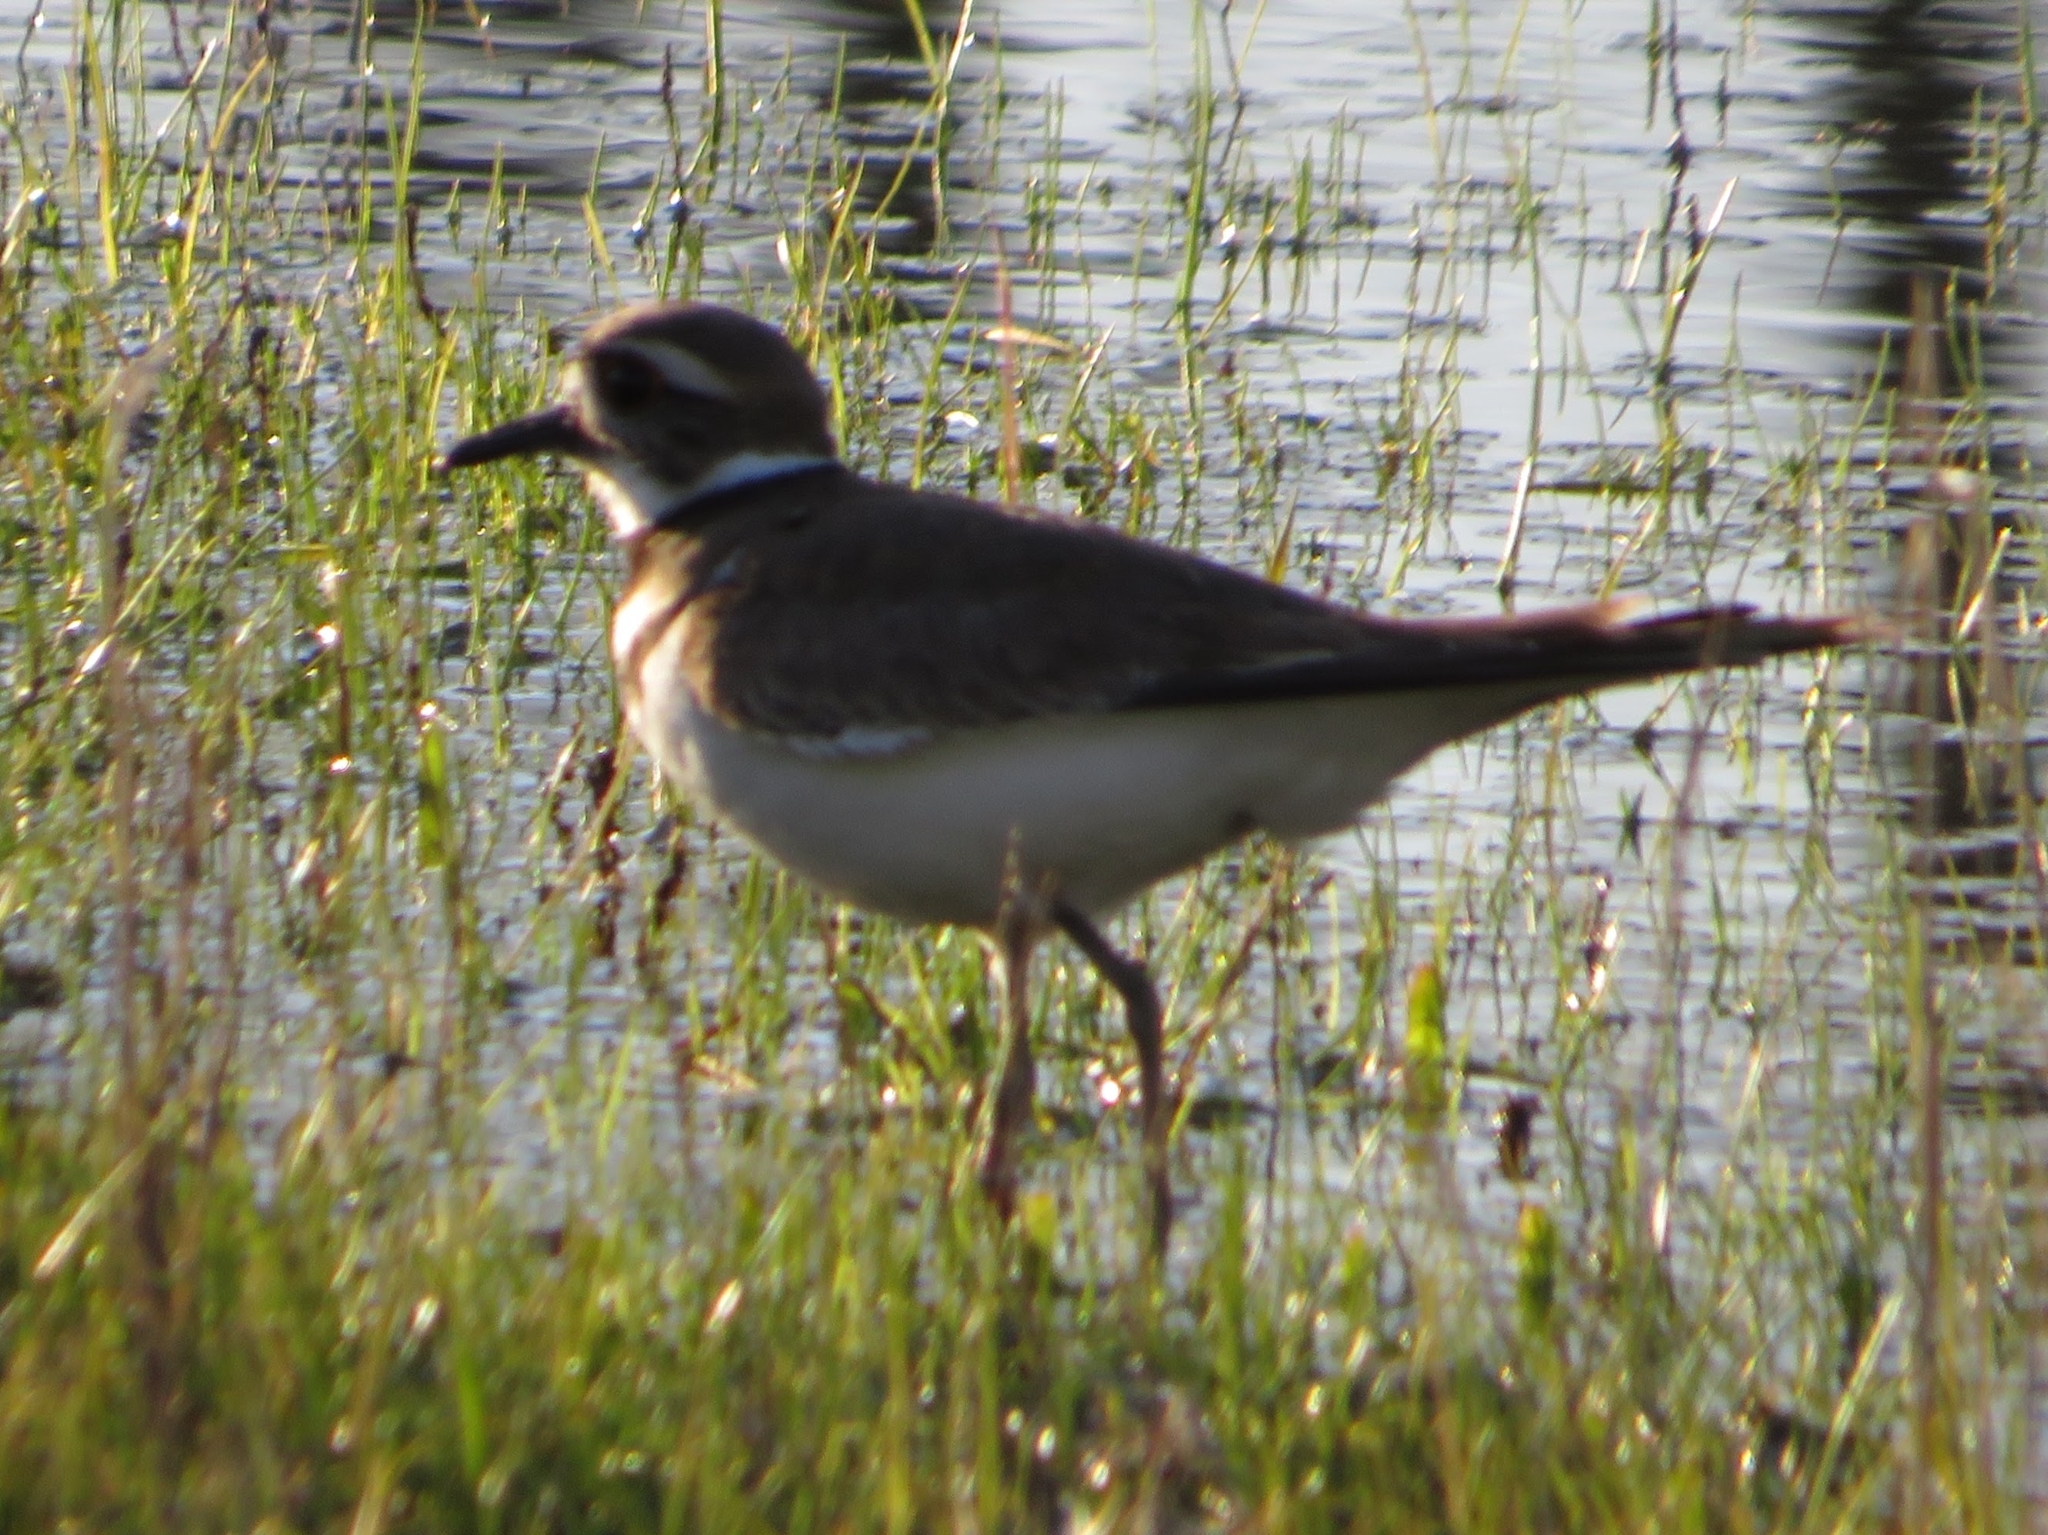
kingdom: Animalia
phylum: Chordata
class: Aves
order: Charadriiformes
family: Charadriidae
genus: Charadrius
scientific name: Charadrius vociferus
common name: Killdeer
